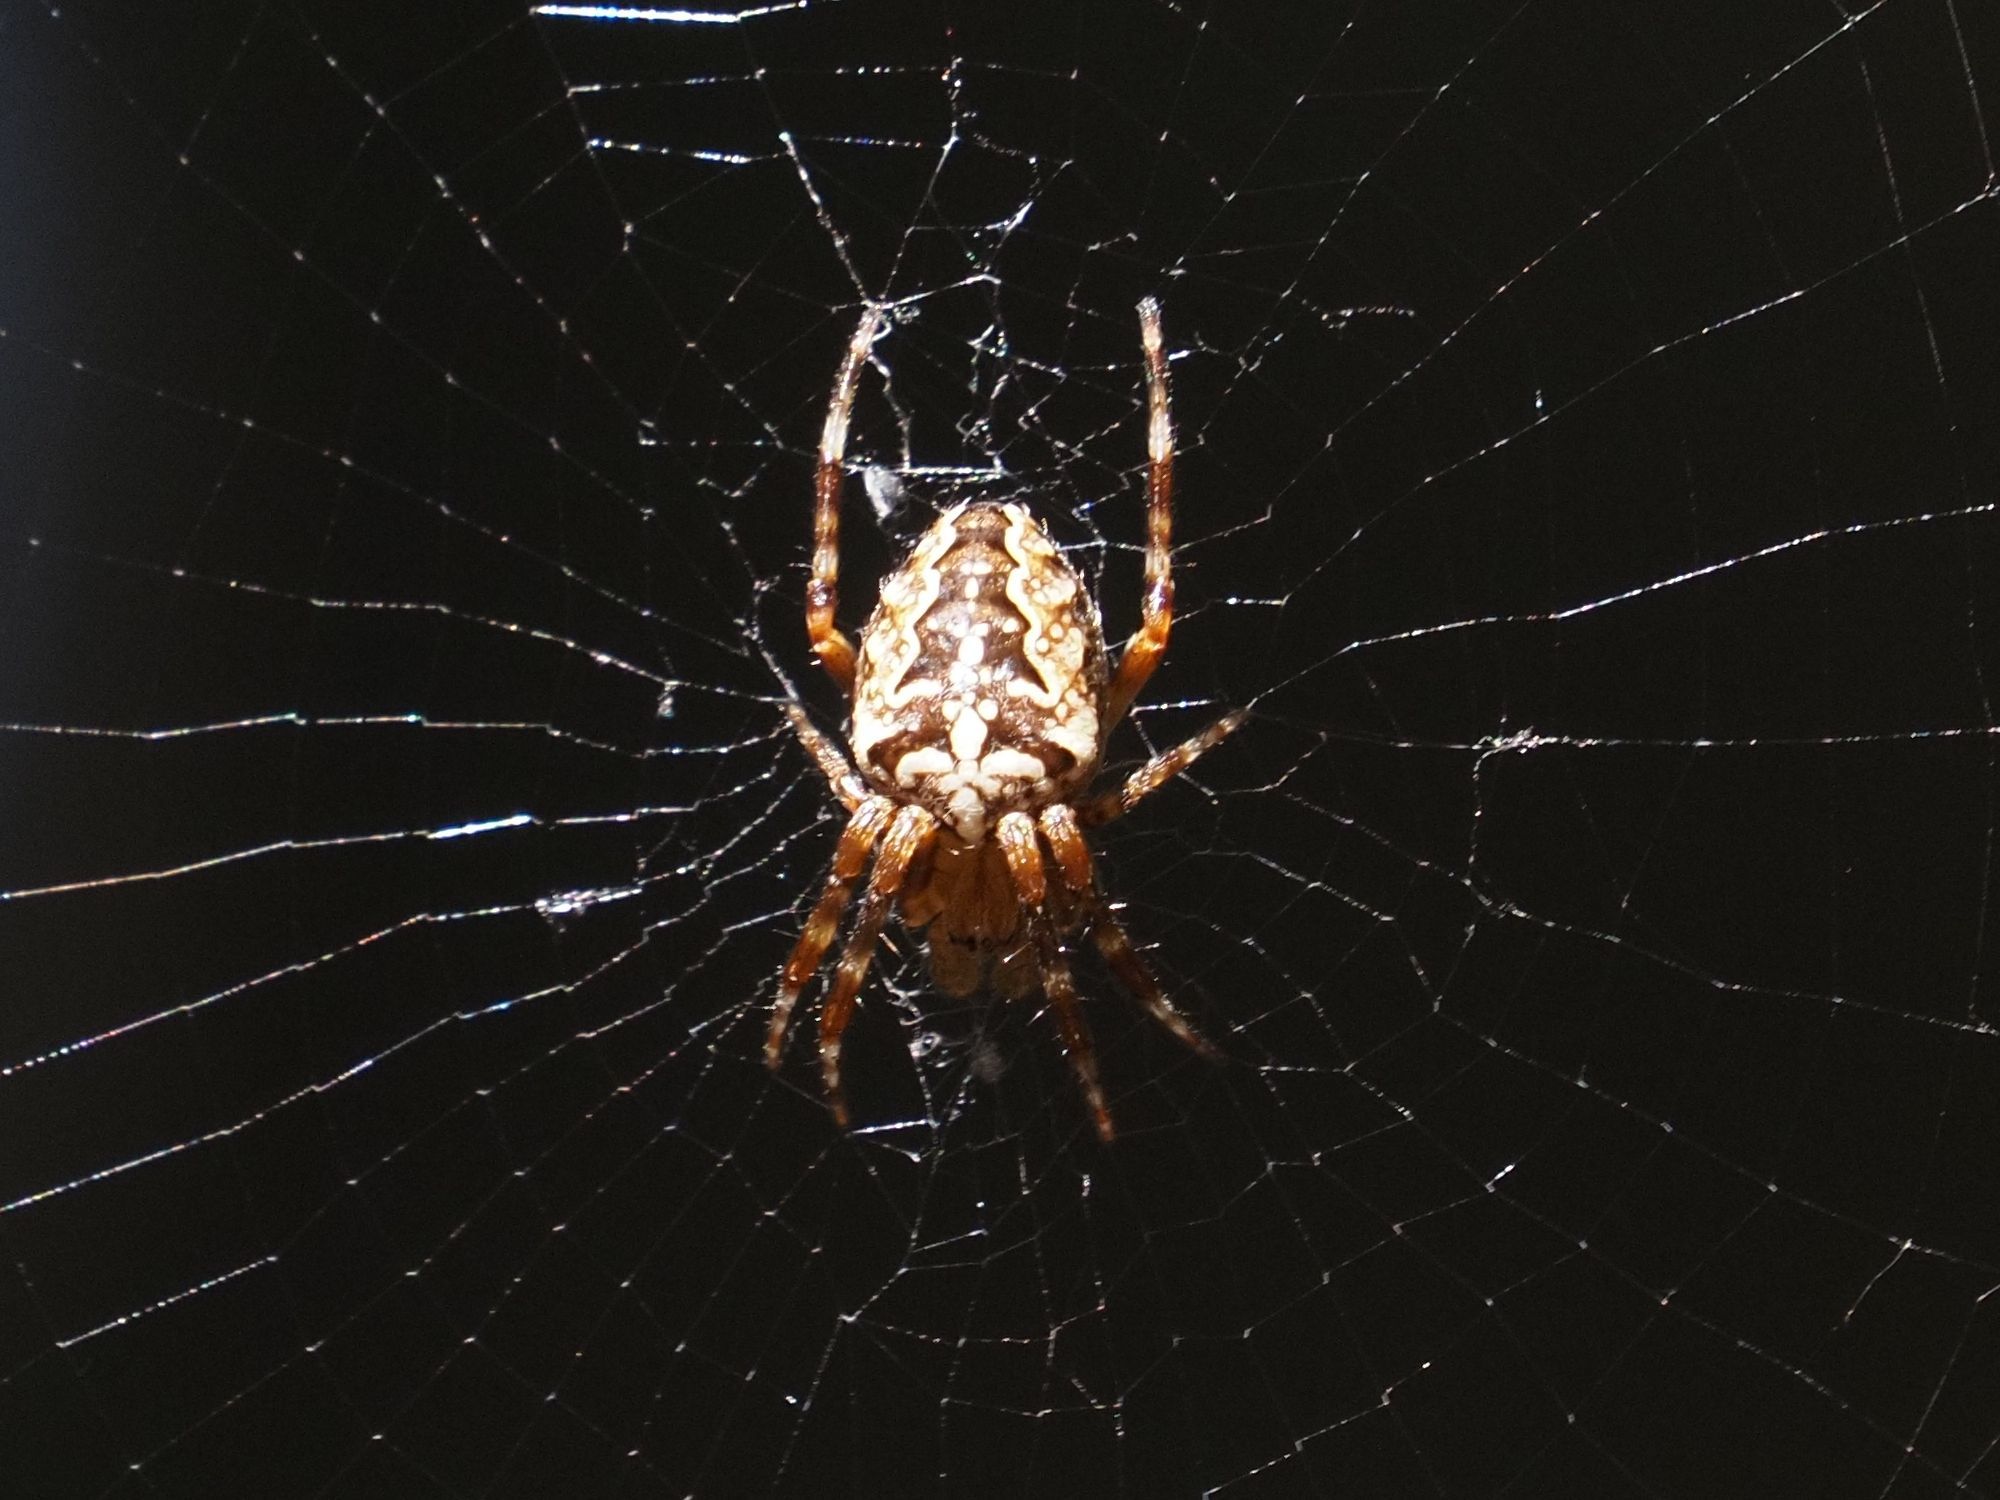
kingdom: Animalia
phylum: Arthropoda
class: Arachnida
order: Araneae
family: Araneidae
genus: Araneus
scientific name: Araneus diadematus
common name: Cross orbweaver
